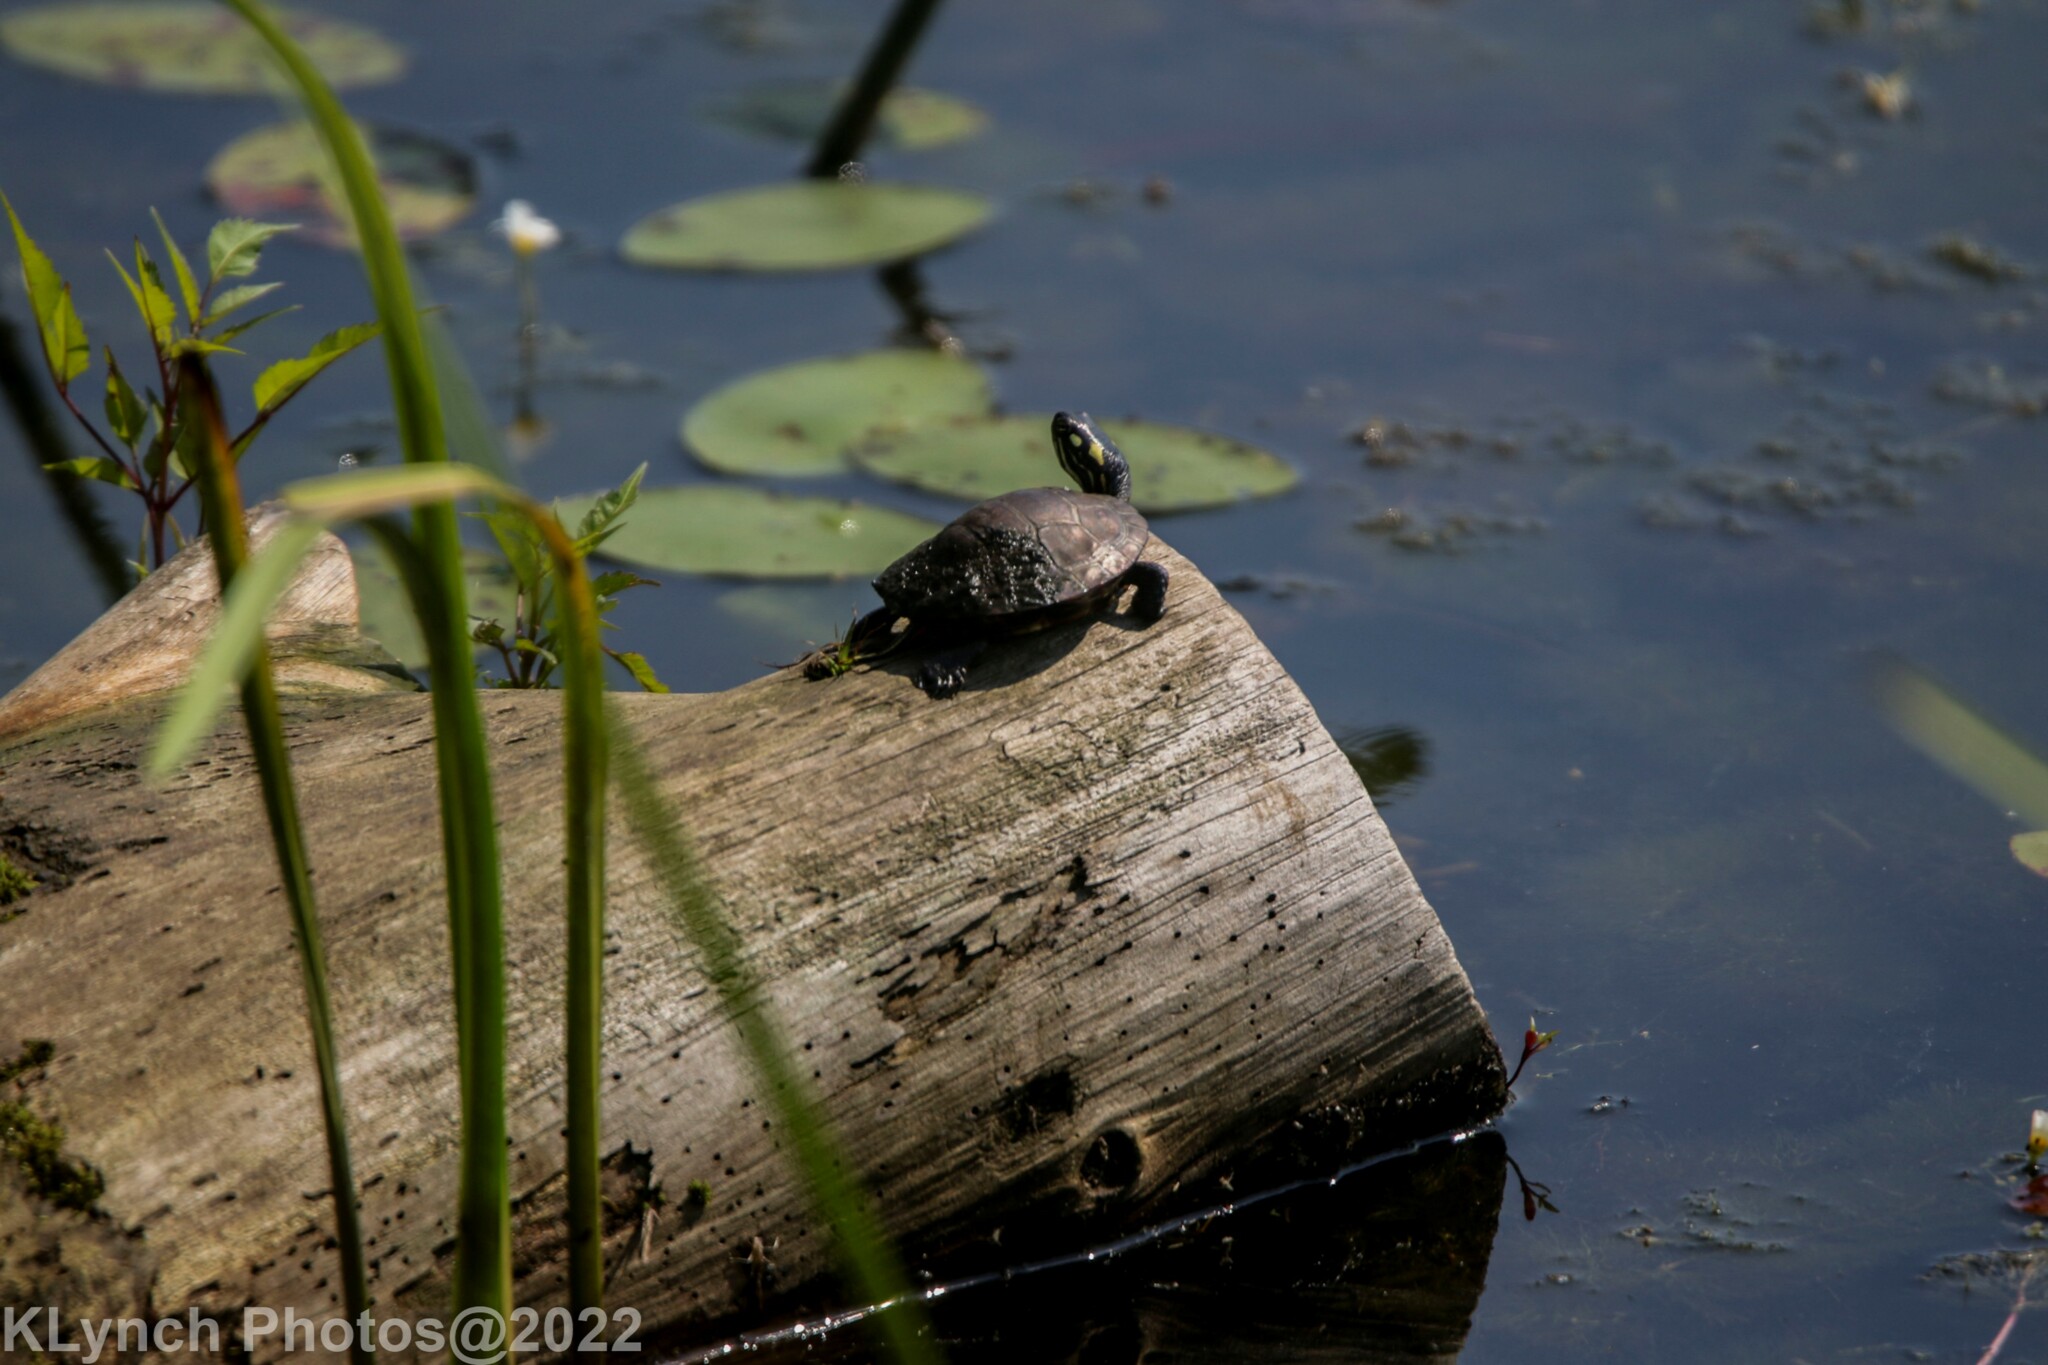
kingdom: Animalia
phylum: Chordata
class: Testudines
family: Emydidae
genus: Chrysemys
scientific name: Chrysemys picta
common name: Painted turtle
